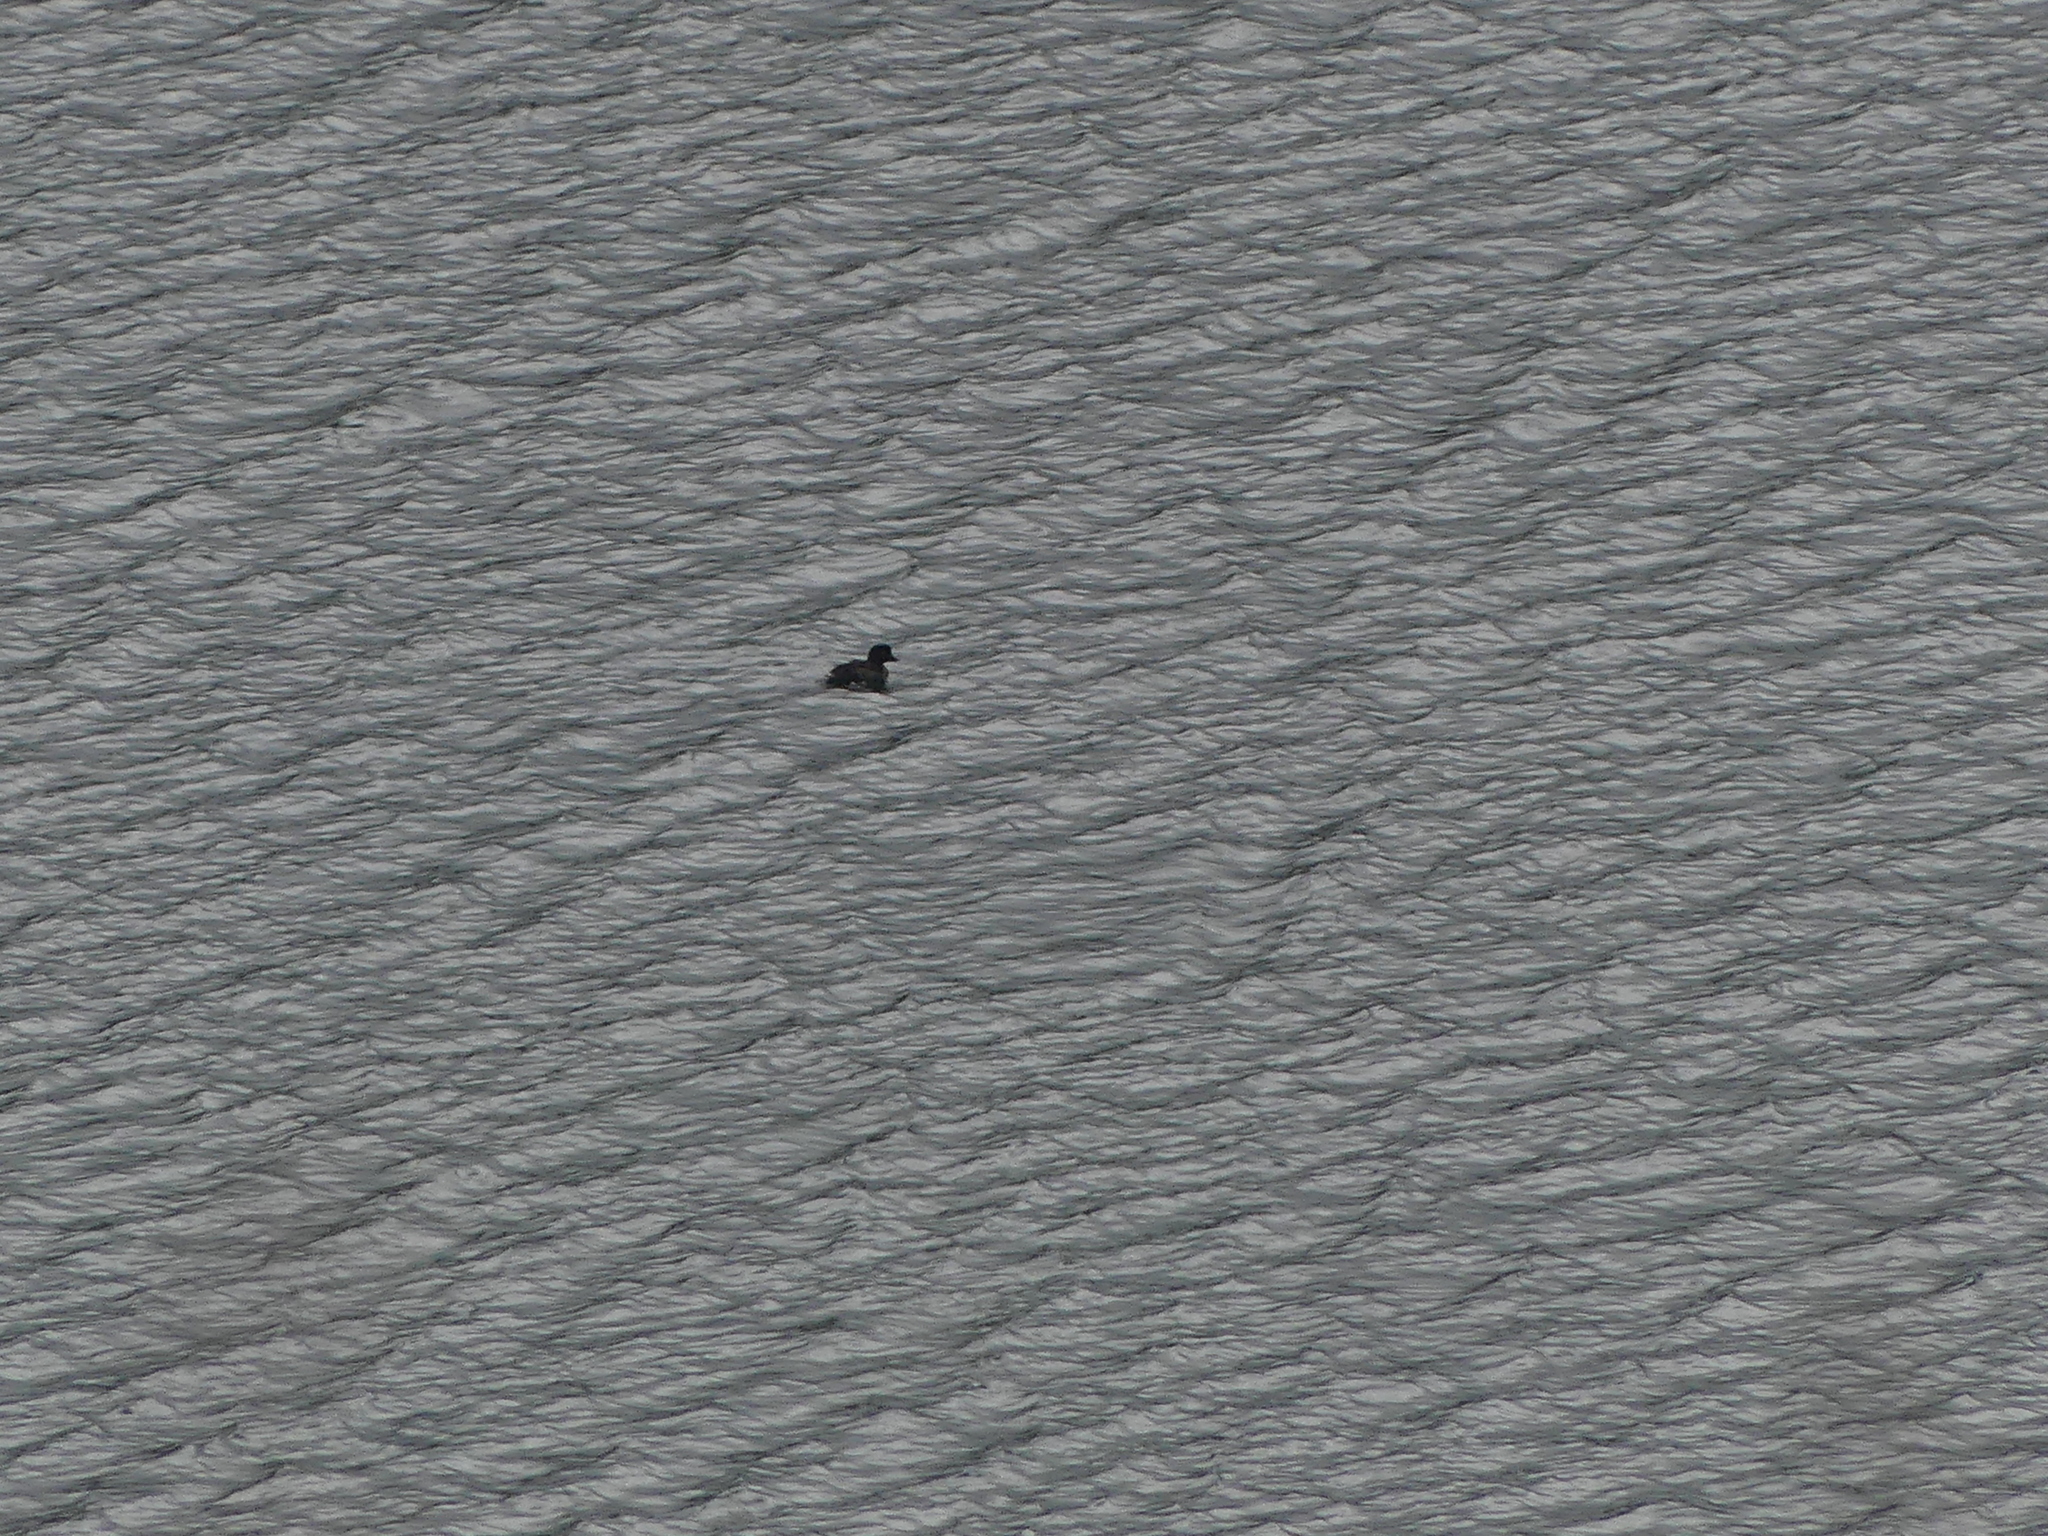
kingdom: Animalia
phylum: Chordata
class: Aves
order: Anseriformes
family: Anatidae
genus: Bucephala
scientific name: Bucephala islandica
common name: Barrow's goldeneye
